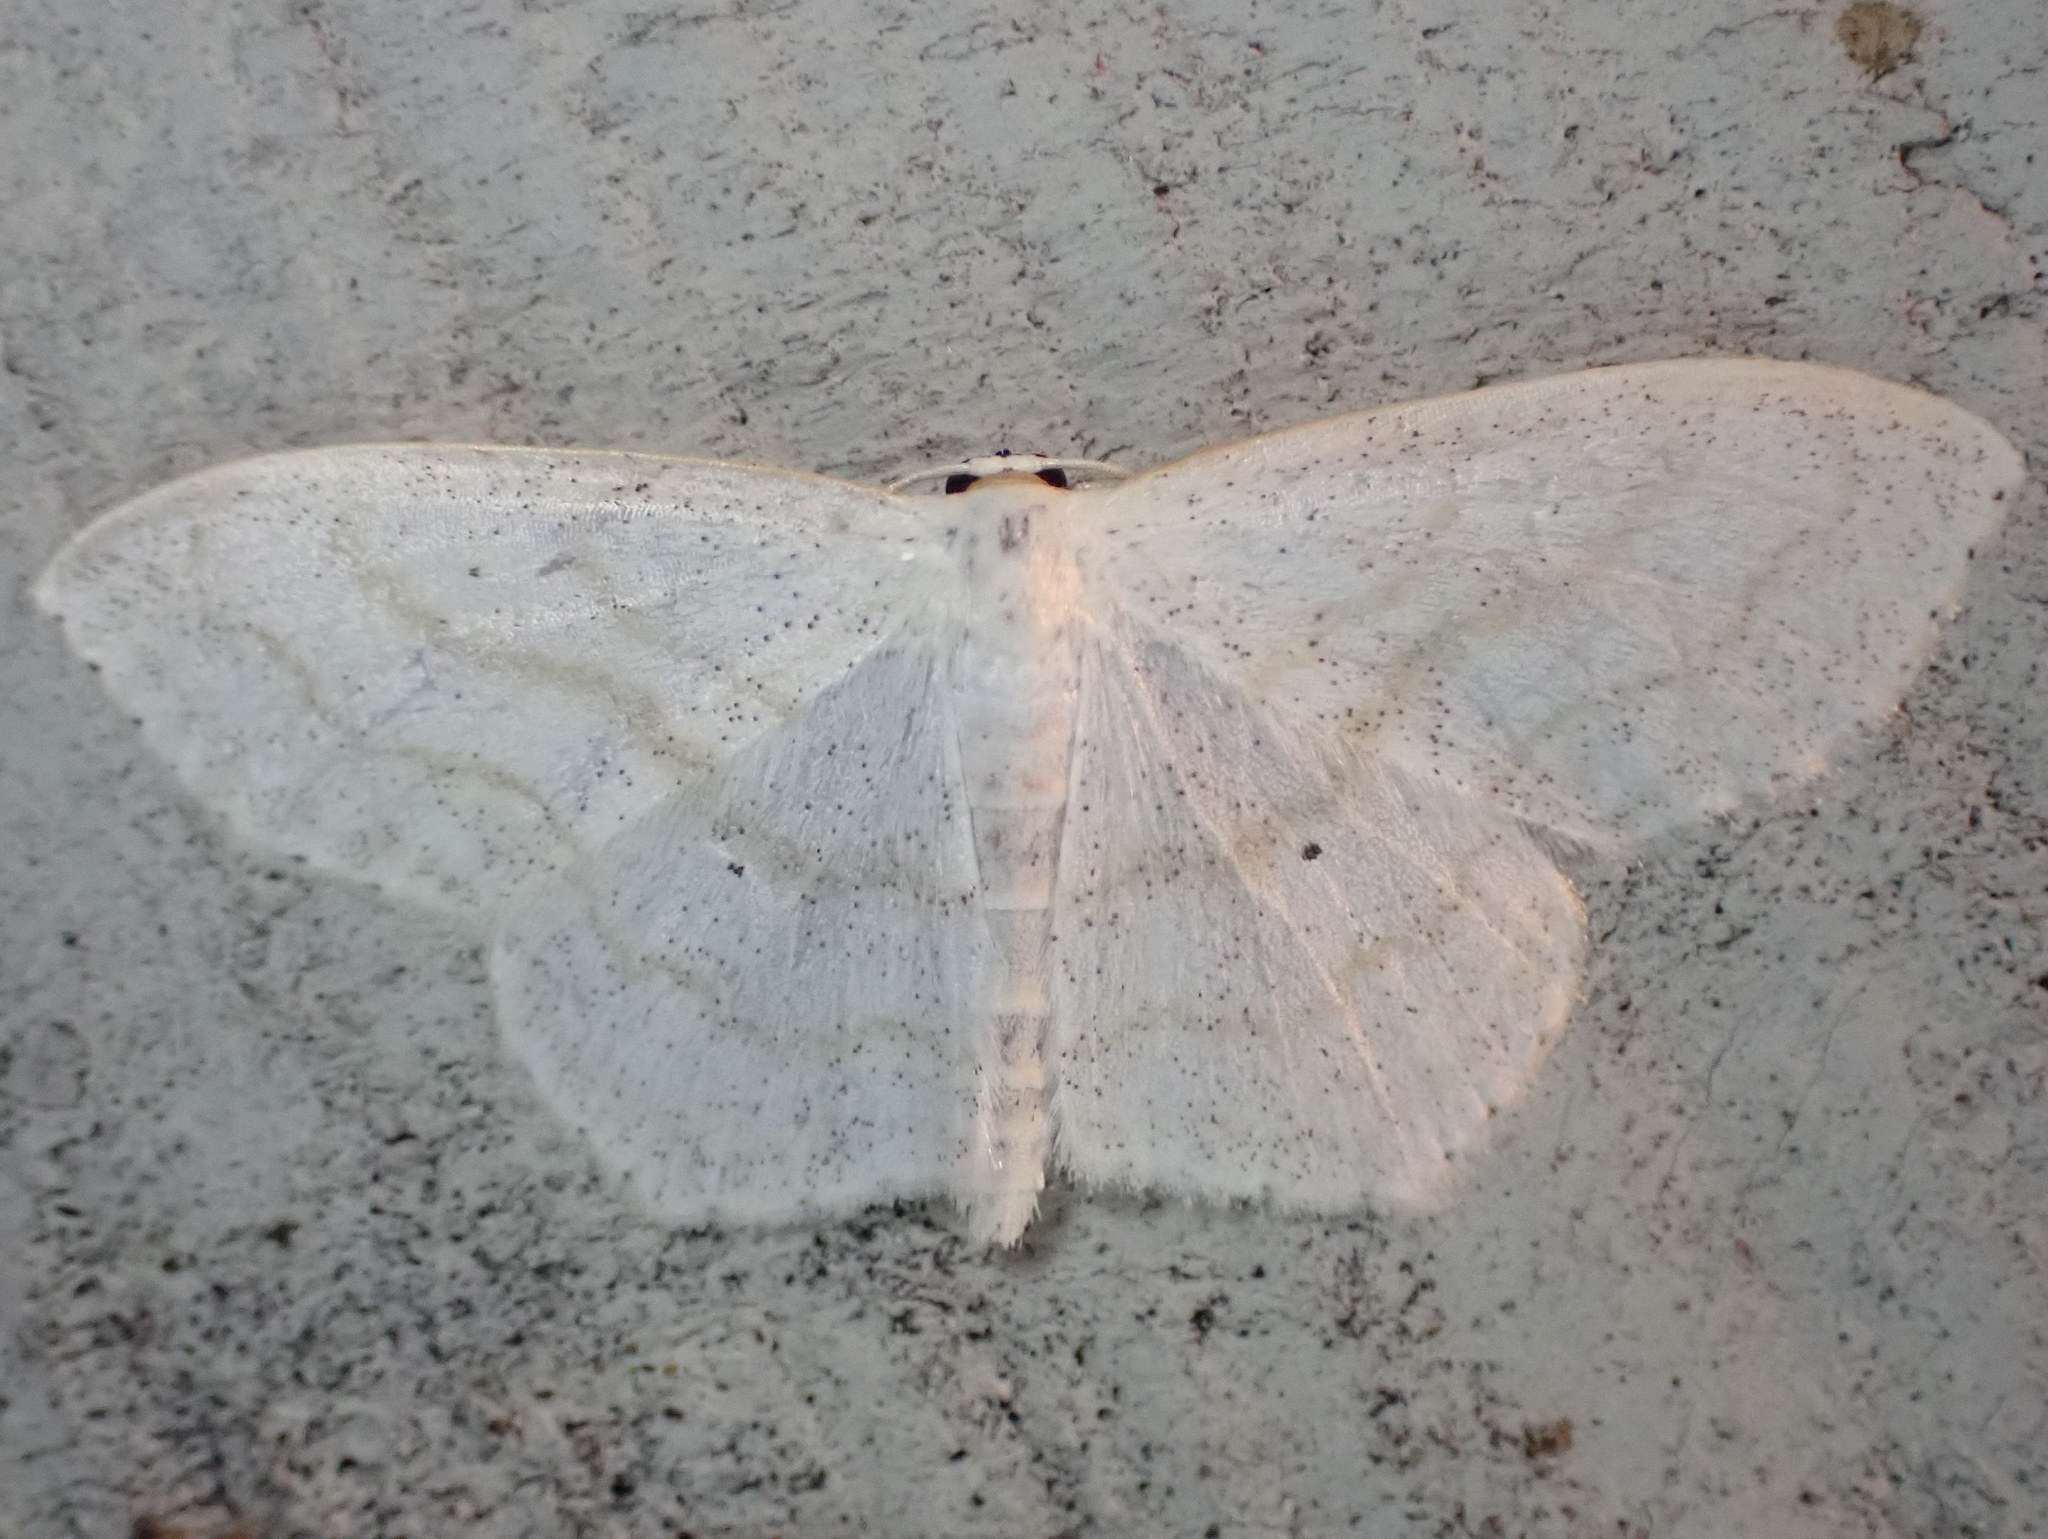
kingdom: Animalia
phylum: Arthropoda
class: Insecta
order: Lepidoptera
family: Geometridae
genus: Scopula
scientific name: Scopula limboundata
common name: Large lace border
